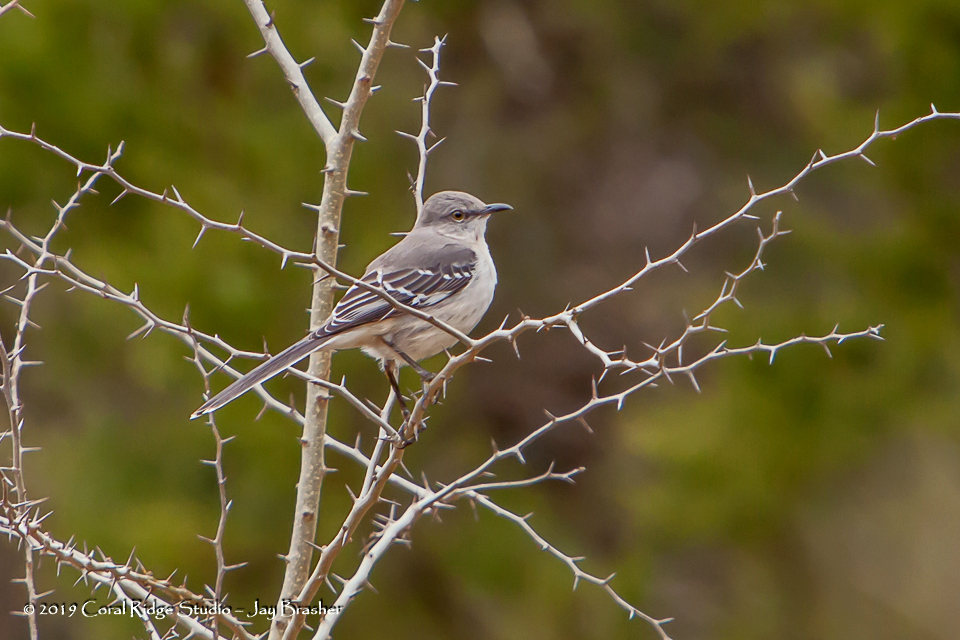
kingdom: Animalia
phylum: Chordata
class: Aves
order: Passeriformes
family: Mimidae
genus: Mimus
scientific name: Mimus polyglottos
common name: Northern mockingbird
